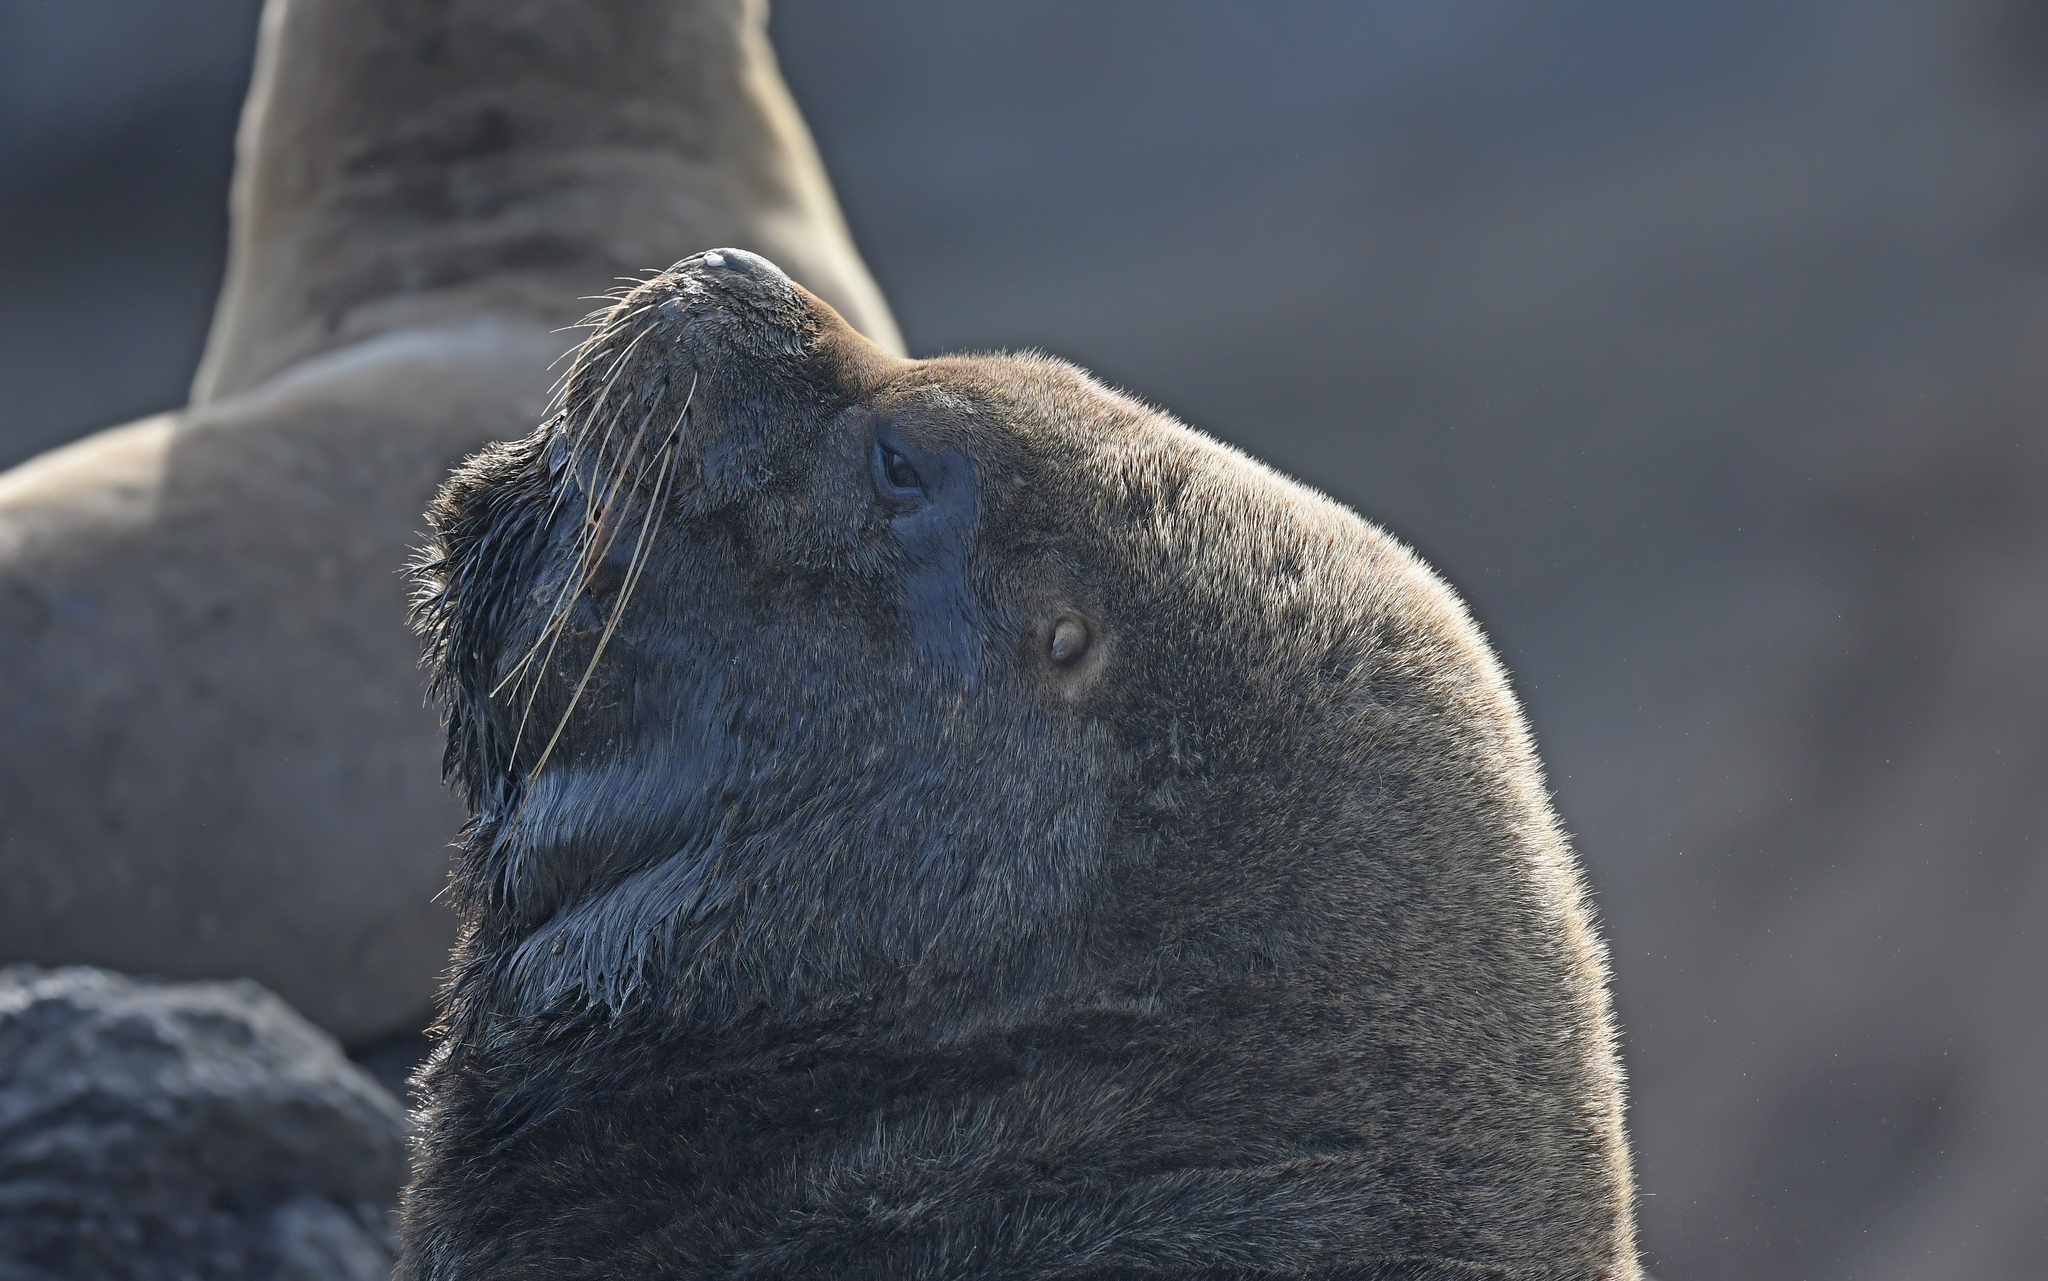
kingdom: Animalia
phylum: Chordata
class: Mammalia
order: Carnivora
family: Otariidae
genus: Otaria
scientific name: Otaria byronia
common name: South american sea lion
